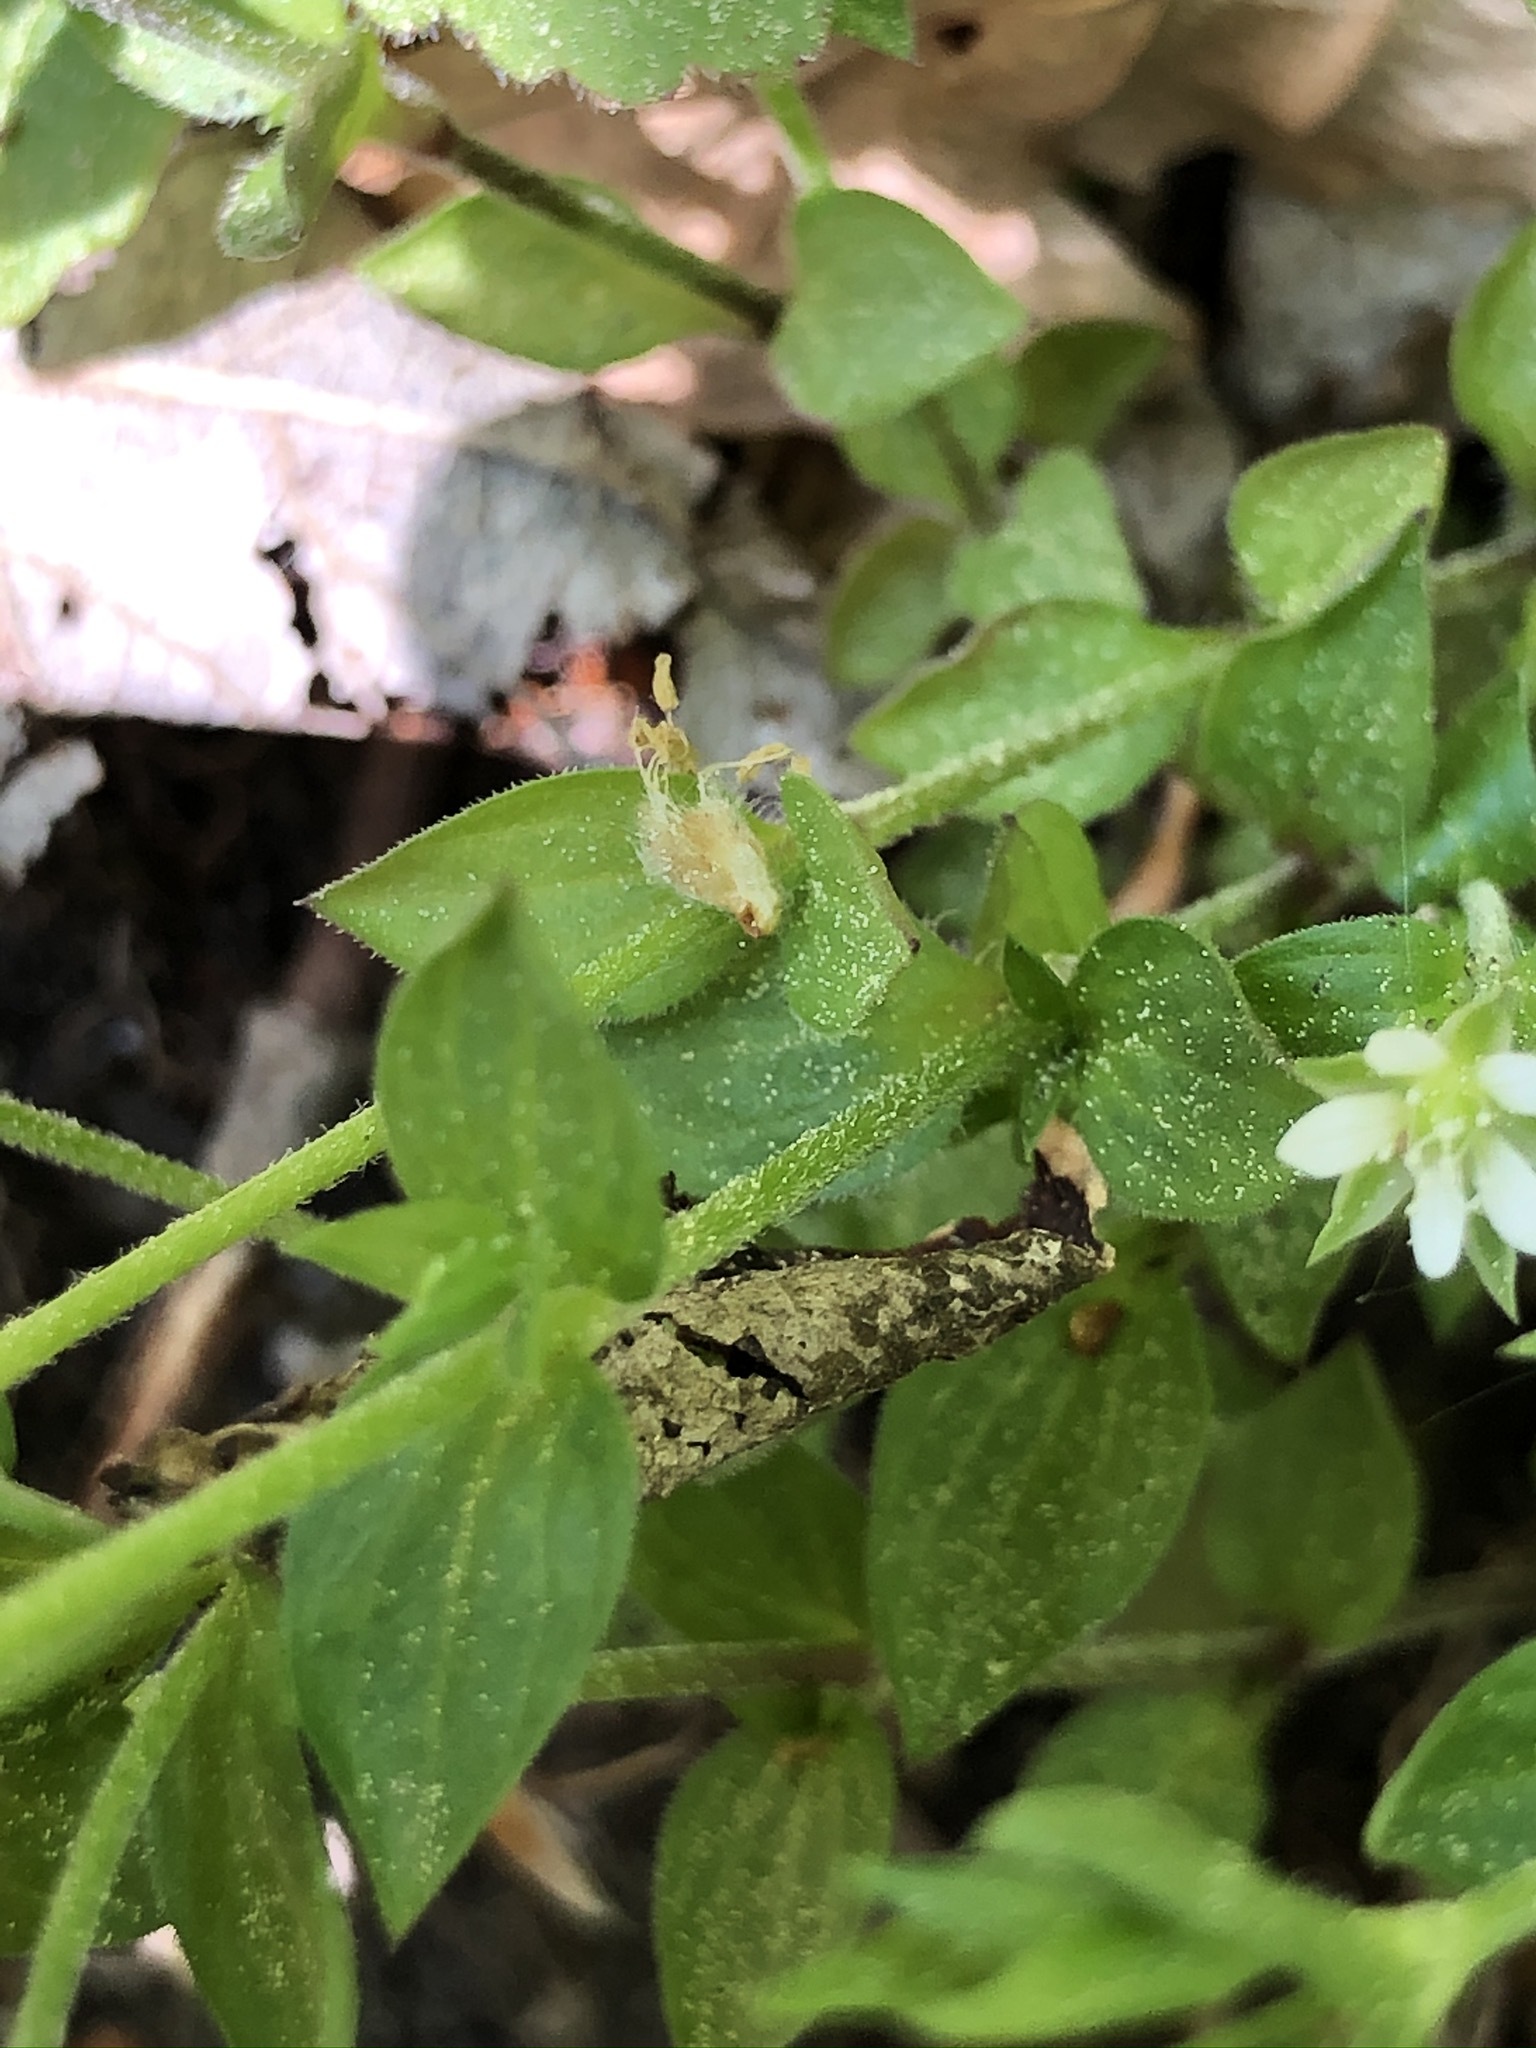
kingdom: Plantae
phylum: Tracheophyta
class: Magnoliopsida
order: Caryophyllales
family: Caryophyllaceae
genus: Moehringia
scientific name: Moehringia trinervia
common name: Three-nerved sandwort
